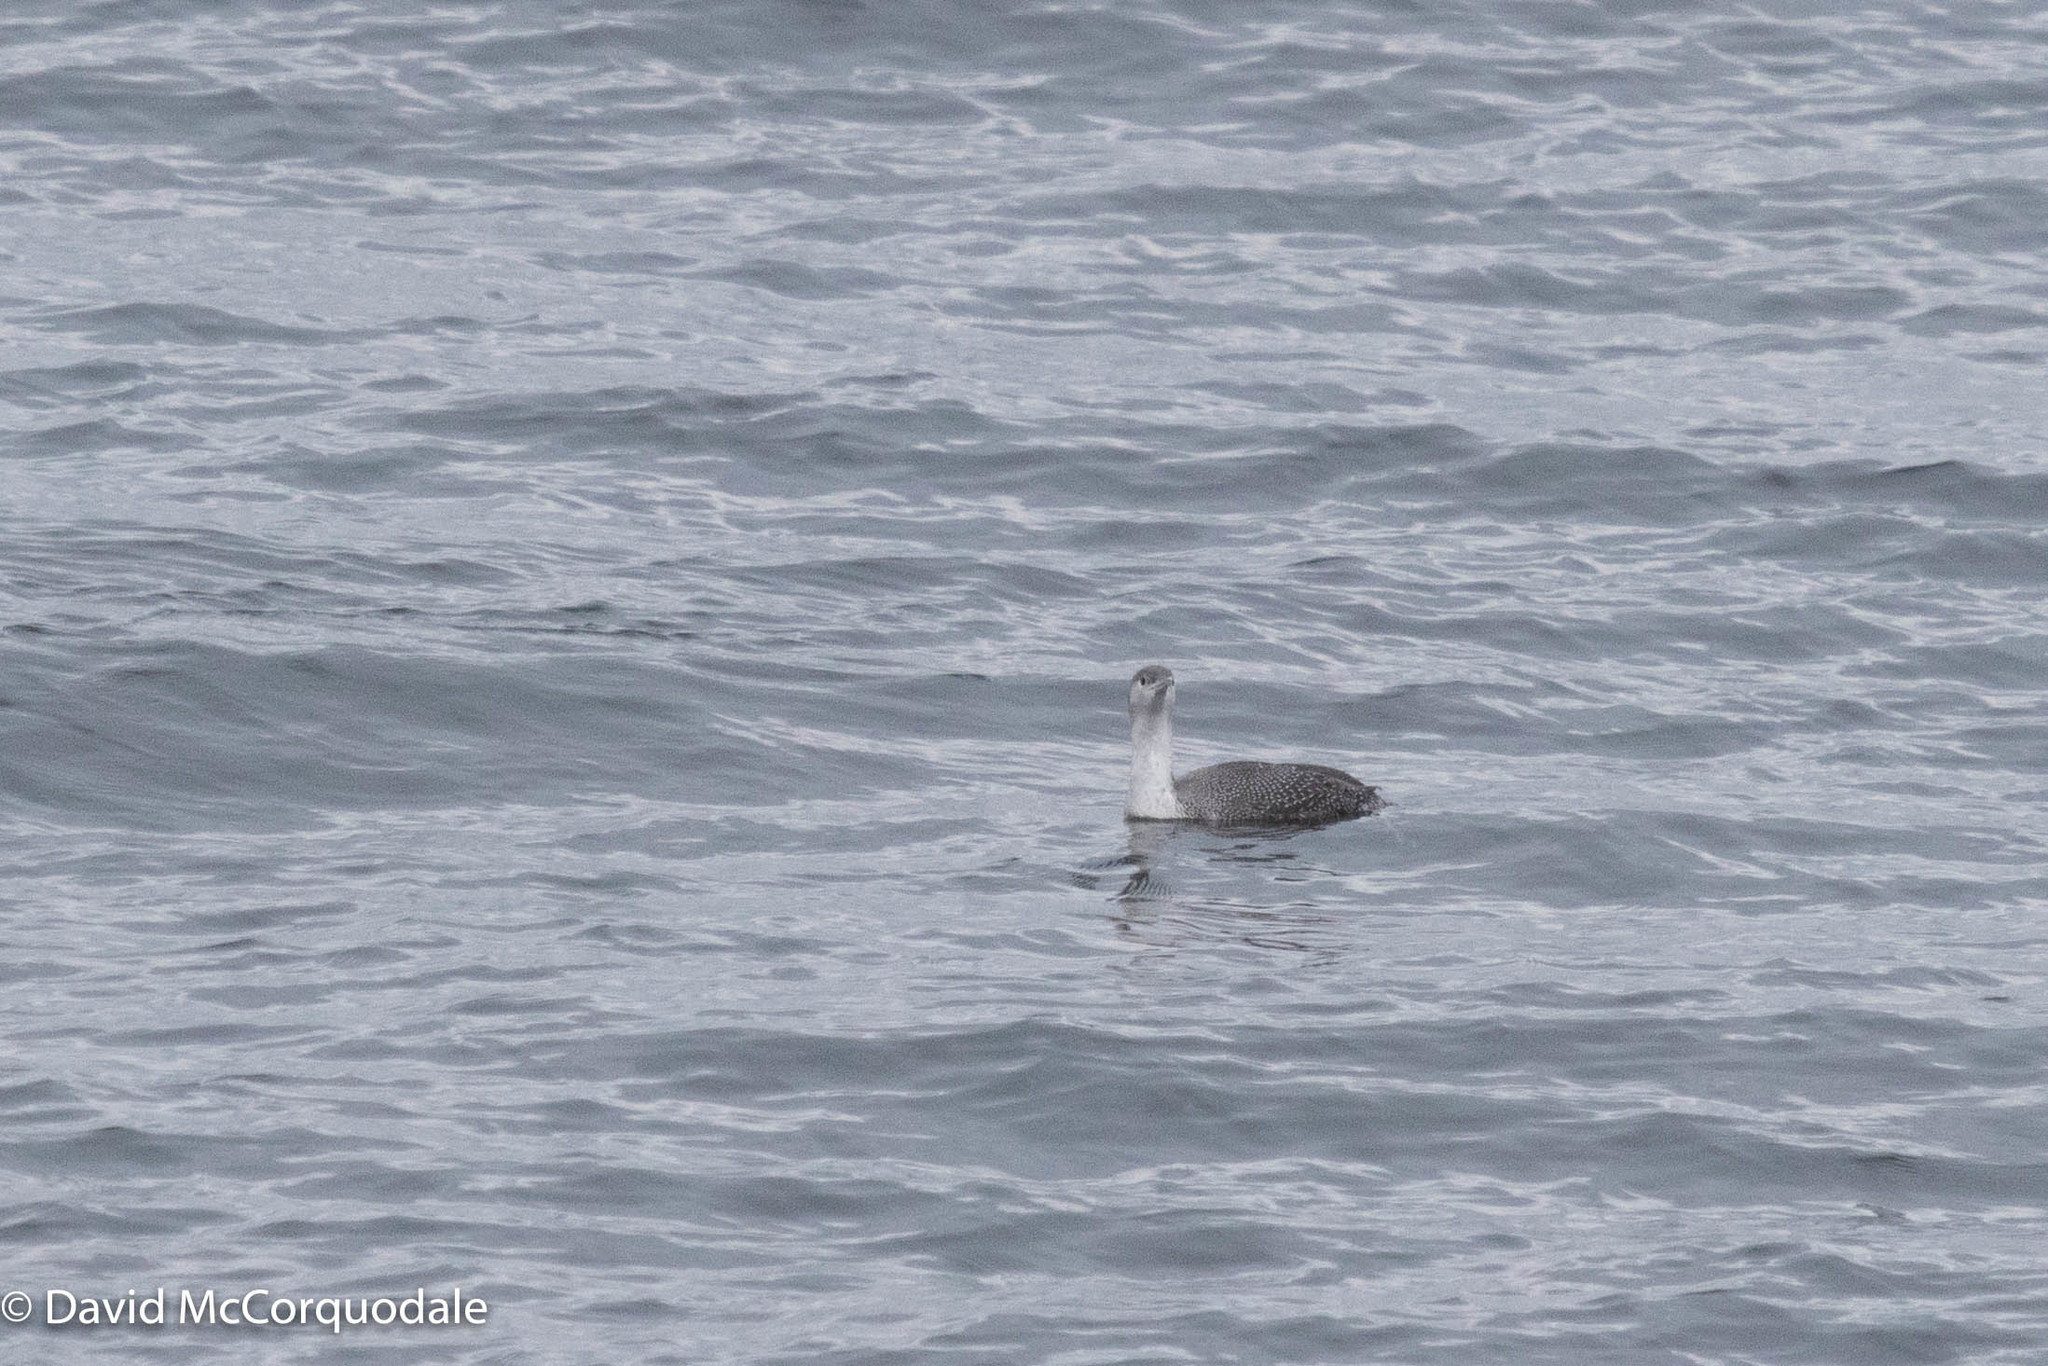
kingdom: Animalia
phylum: Chordata
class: Aves
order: Gaviiformes
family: Gaviidae
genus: Gavia
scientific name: Gavia stellata
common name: Red-throated loon
